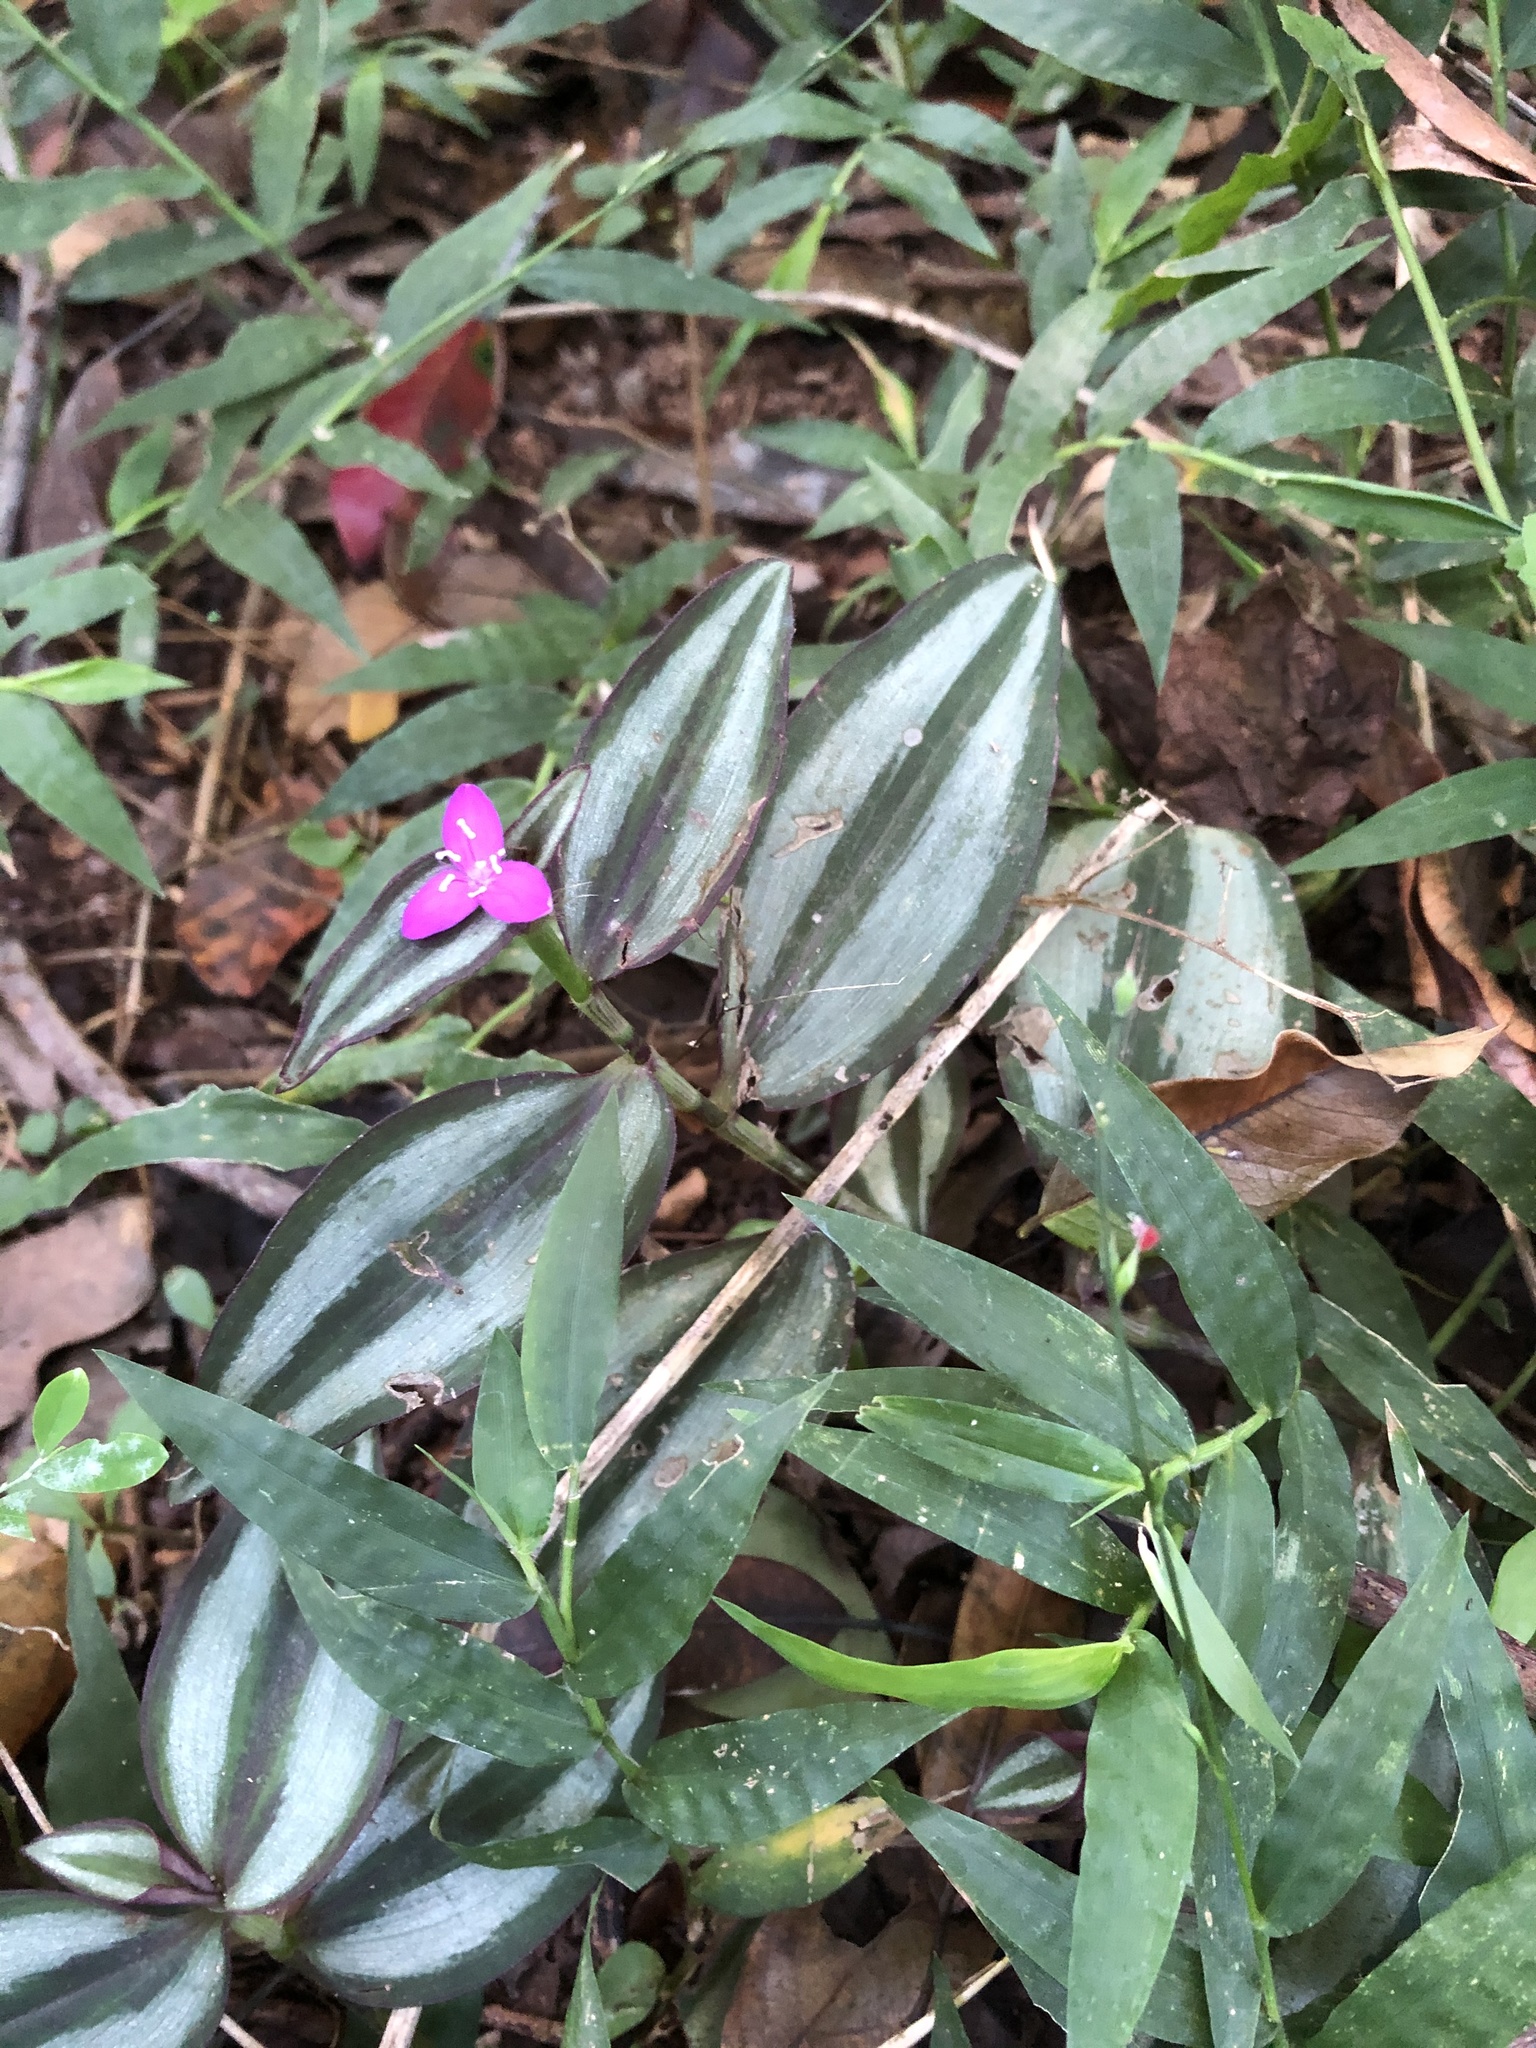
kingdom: Plantae
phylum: Tracheophyta
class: Liliopsida
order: Commelinales
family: Commelinaceae
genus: Tradescantia
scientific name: Tradescantia zebrina
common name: Inchplant
